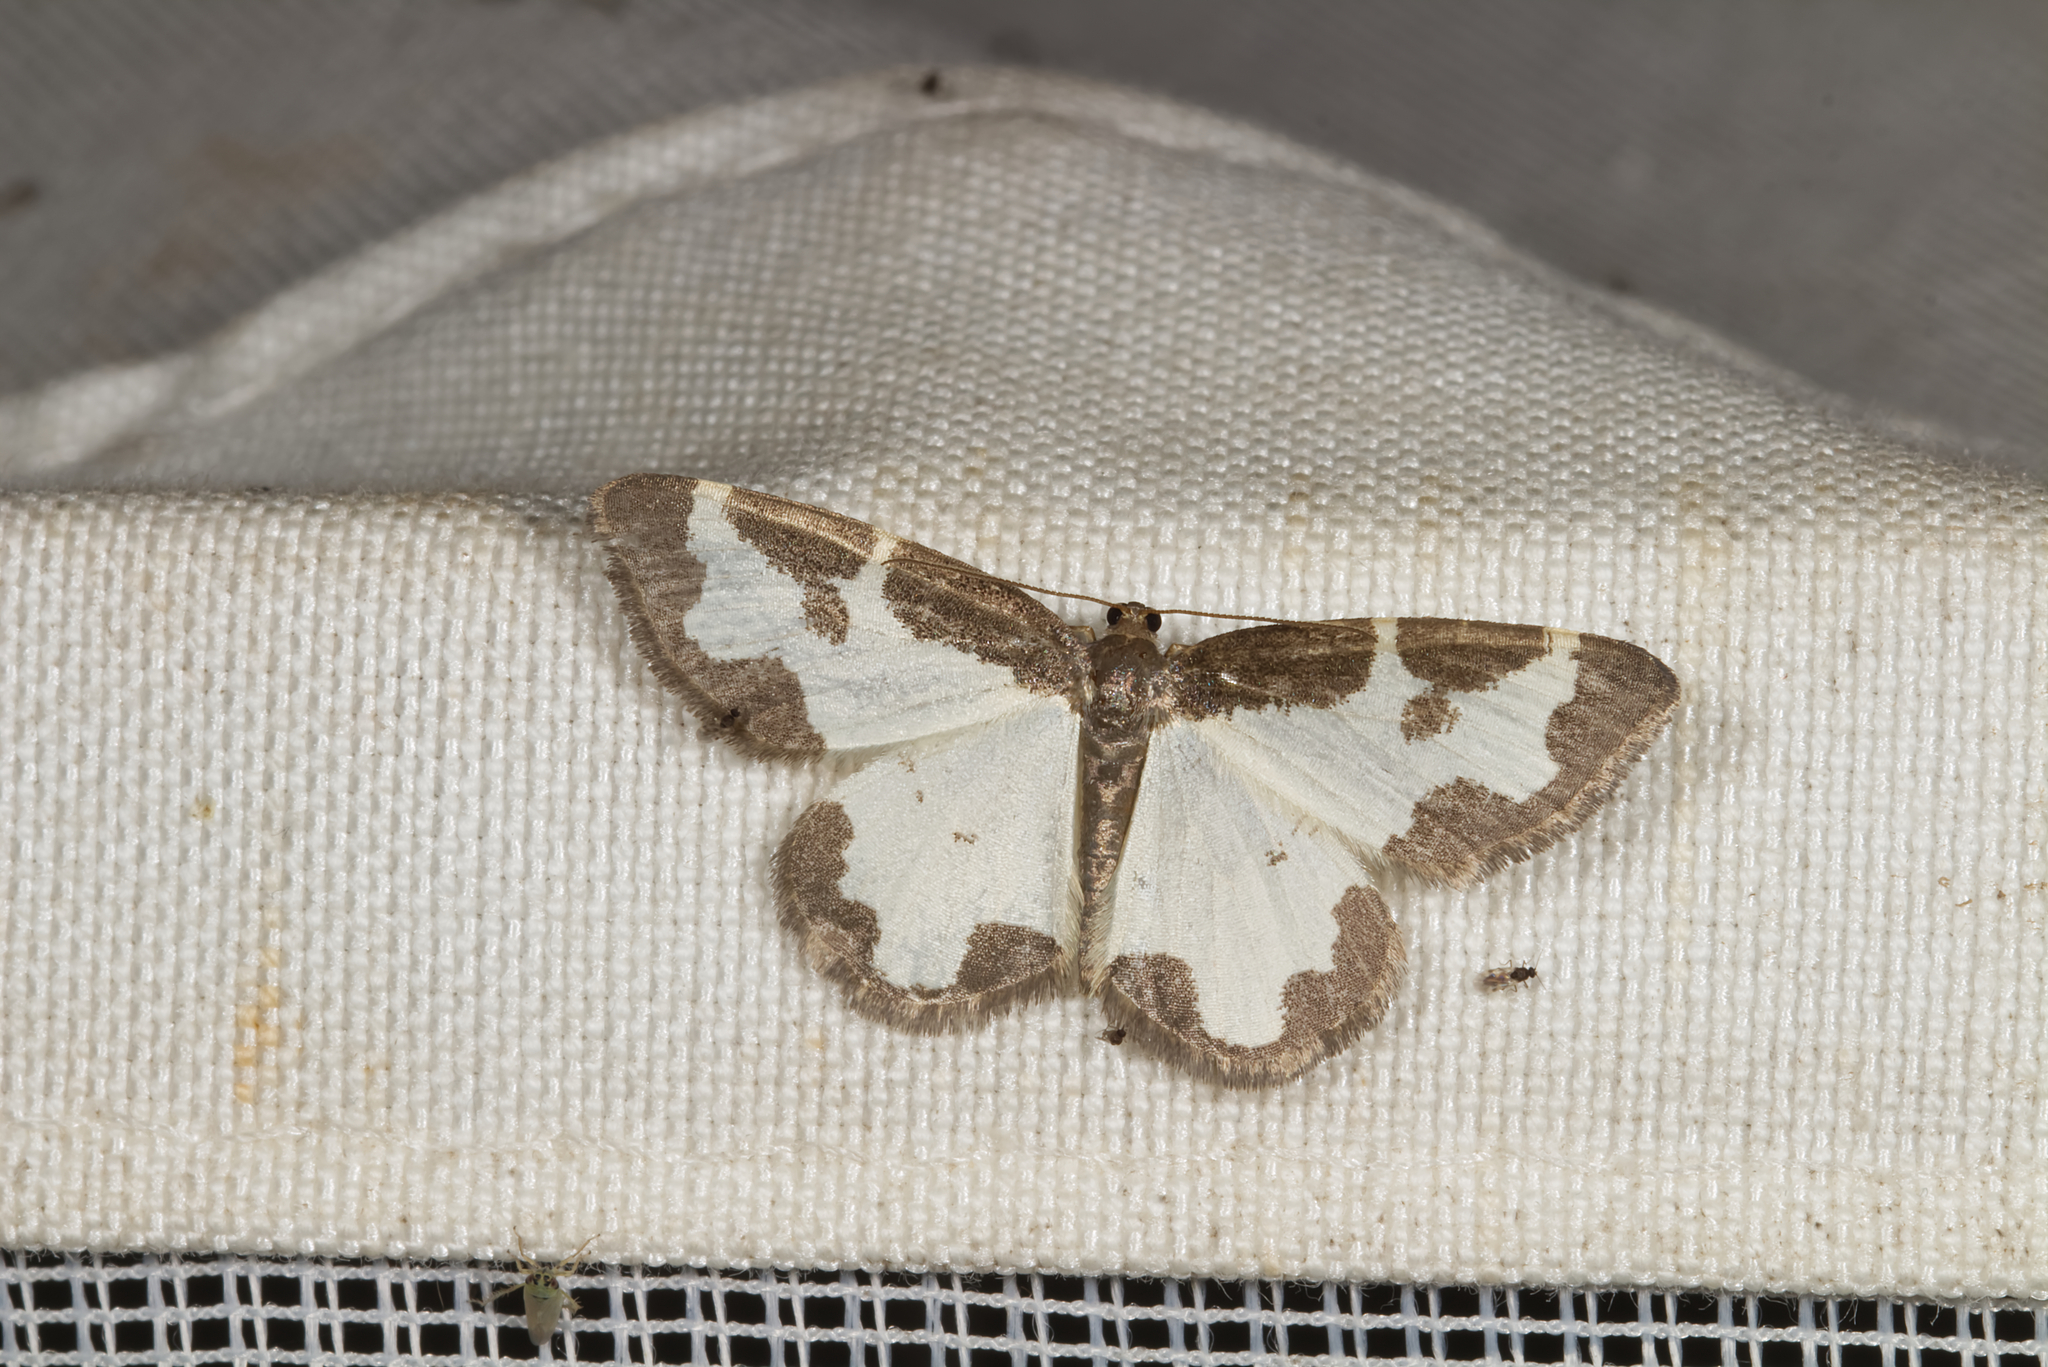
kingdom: Animalia
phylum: Arthropoda
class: Insecta
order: Lepidoptera
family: Geometridae
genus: Lomaspilis
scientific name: Lomaspilis marginata
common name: Clouded border
